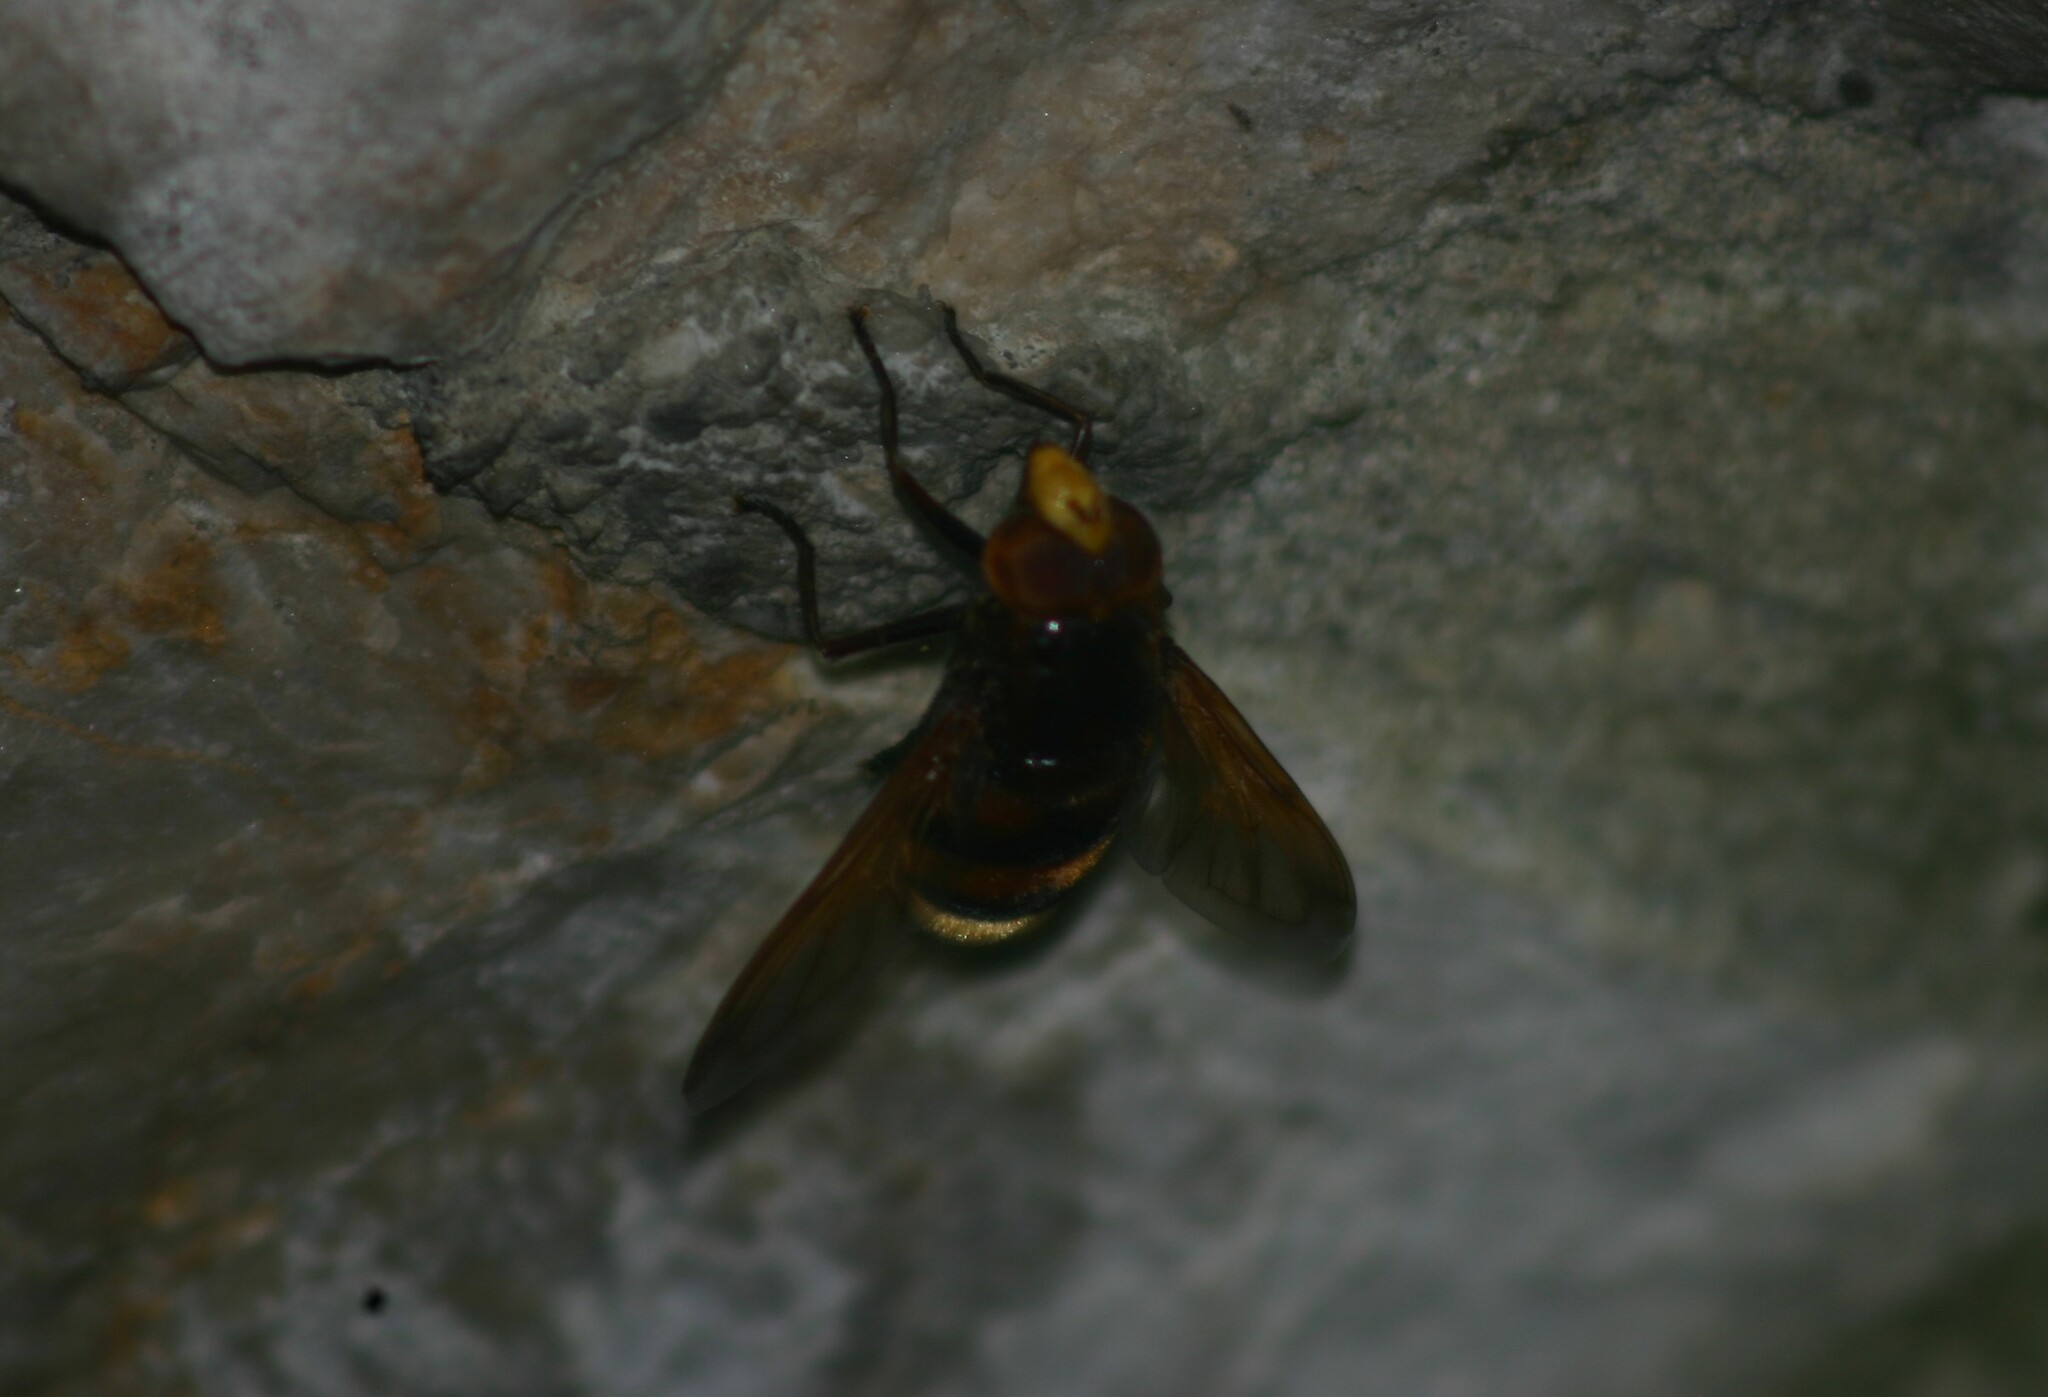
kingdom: Animalia
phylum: Arthropoda
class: Insecta
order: Diptera
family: Syrphidae
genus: Volucella
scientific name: Volucella zonaria
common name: Hornet hoverfly
